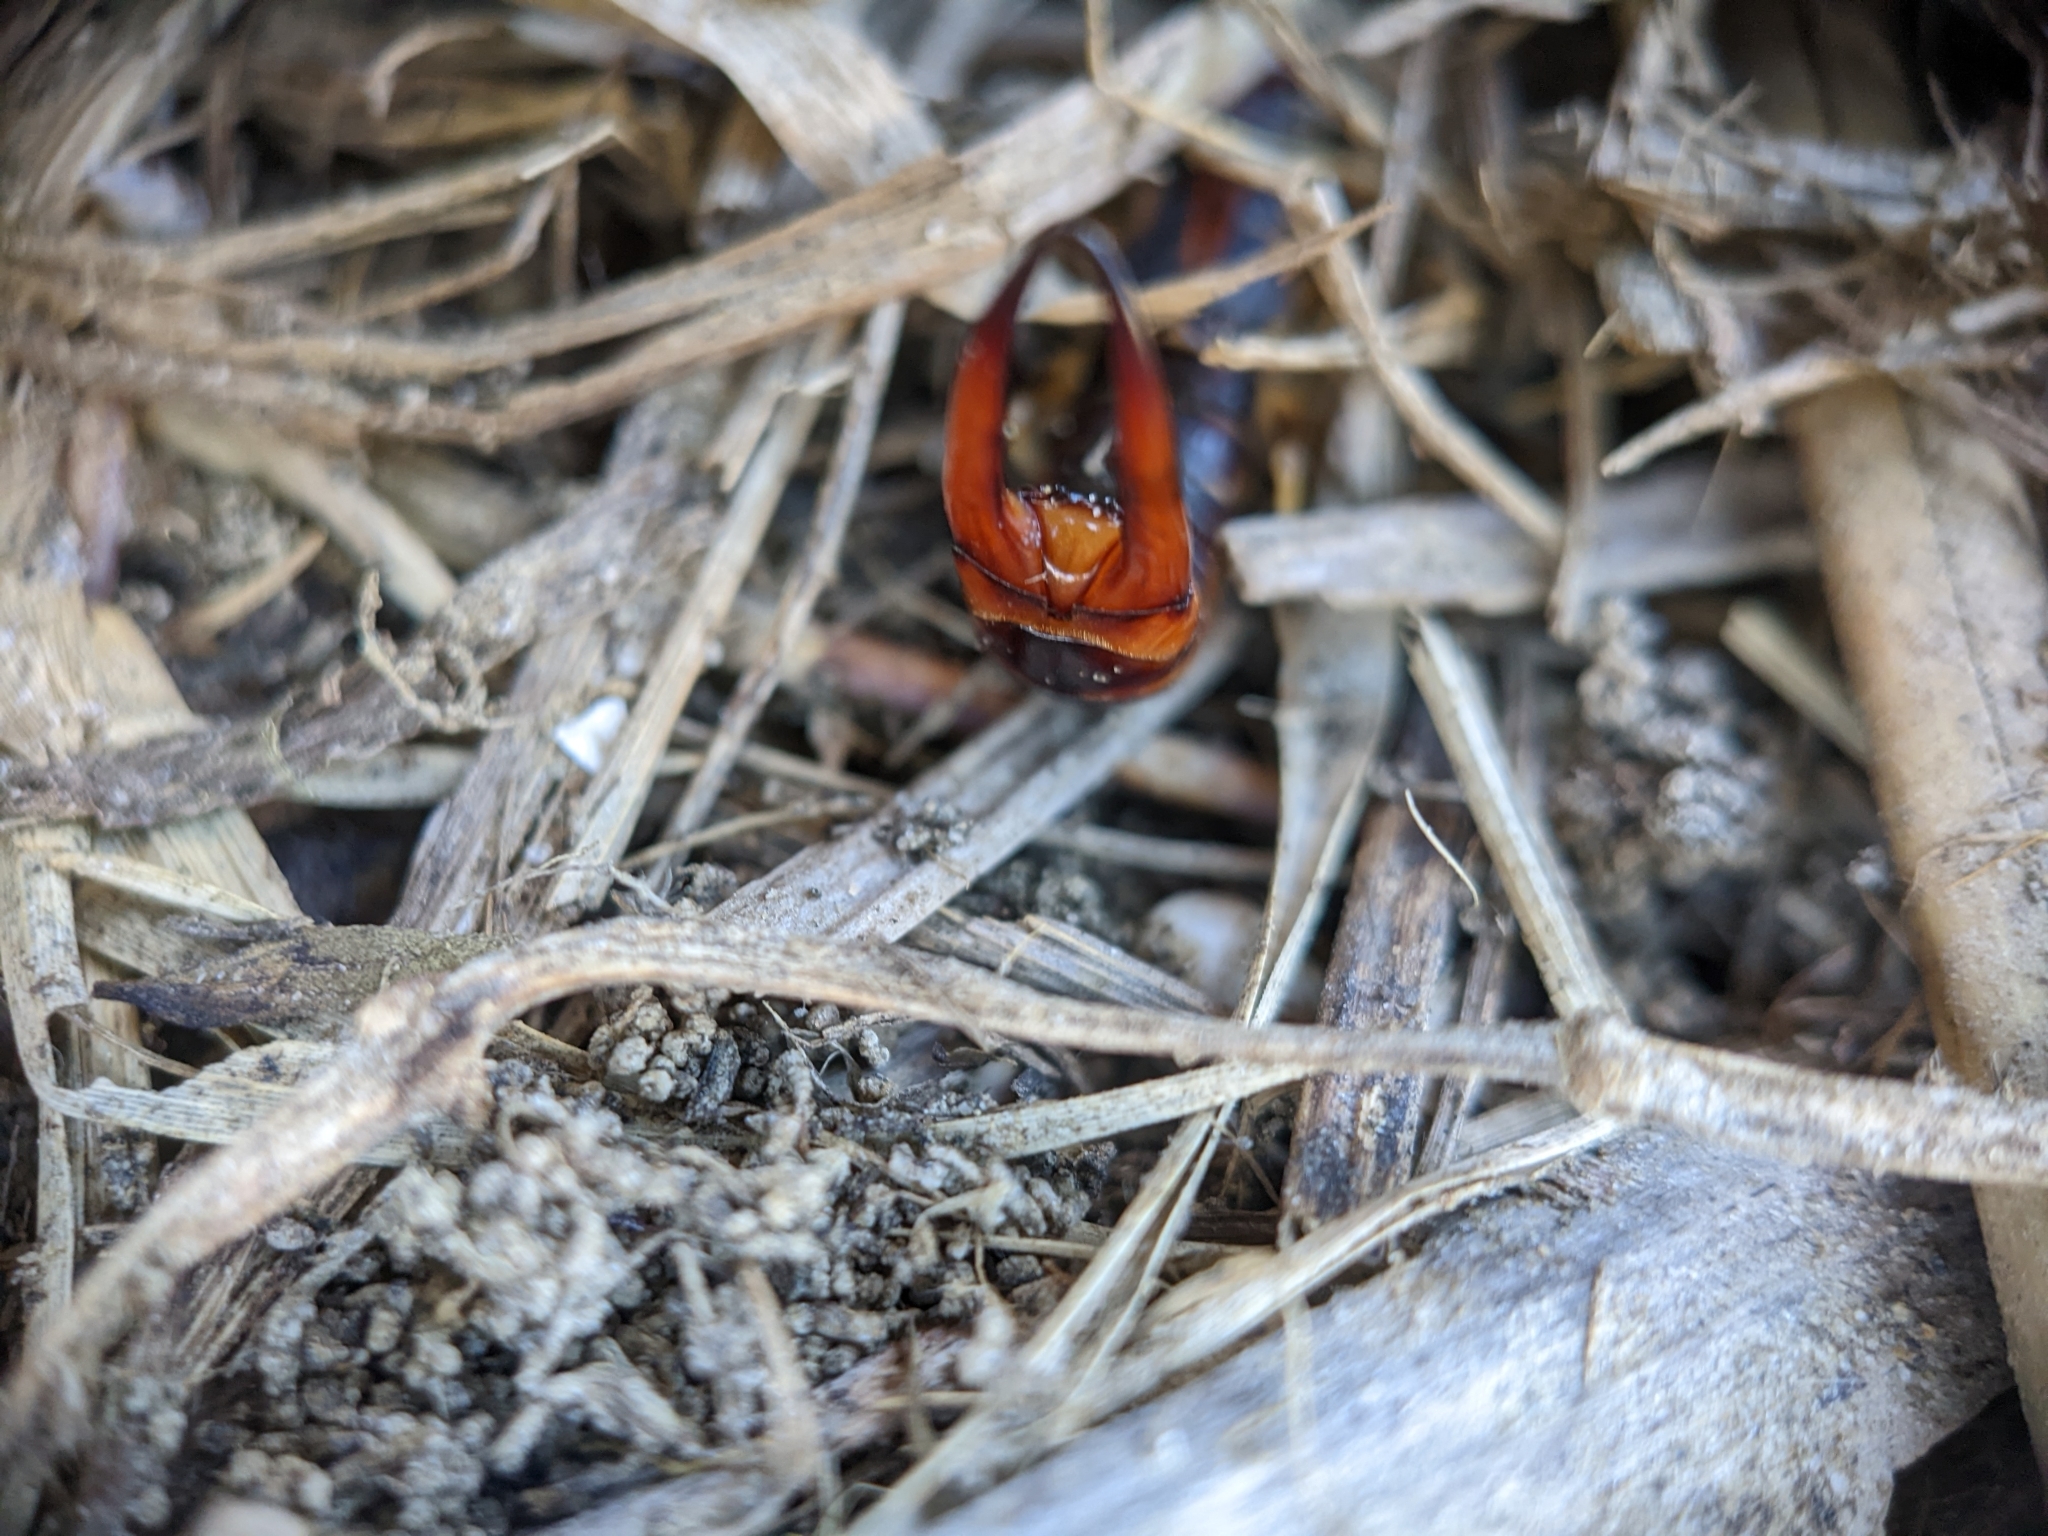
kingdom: Animalia
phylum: Arthropoda
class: Insecta
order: Dermaptera
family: Labiduridae
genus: Labidura
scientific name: Labidura riparia
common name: Striped earwig
